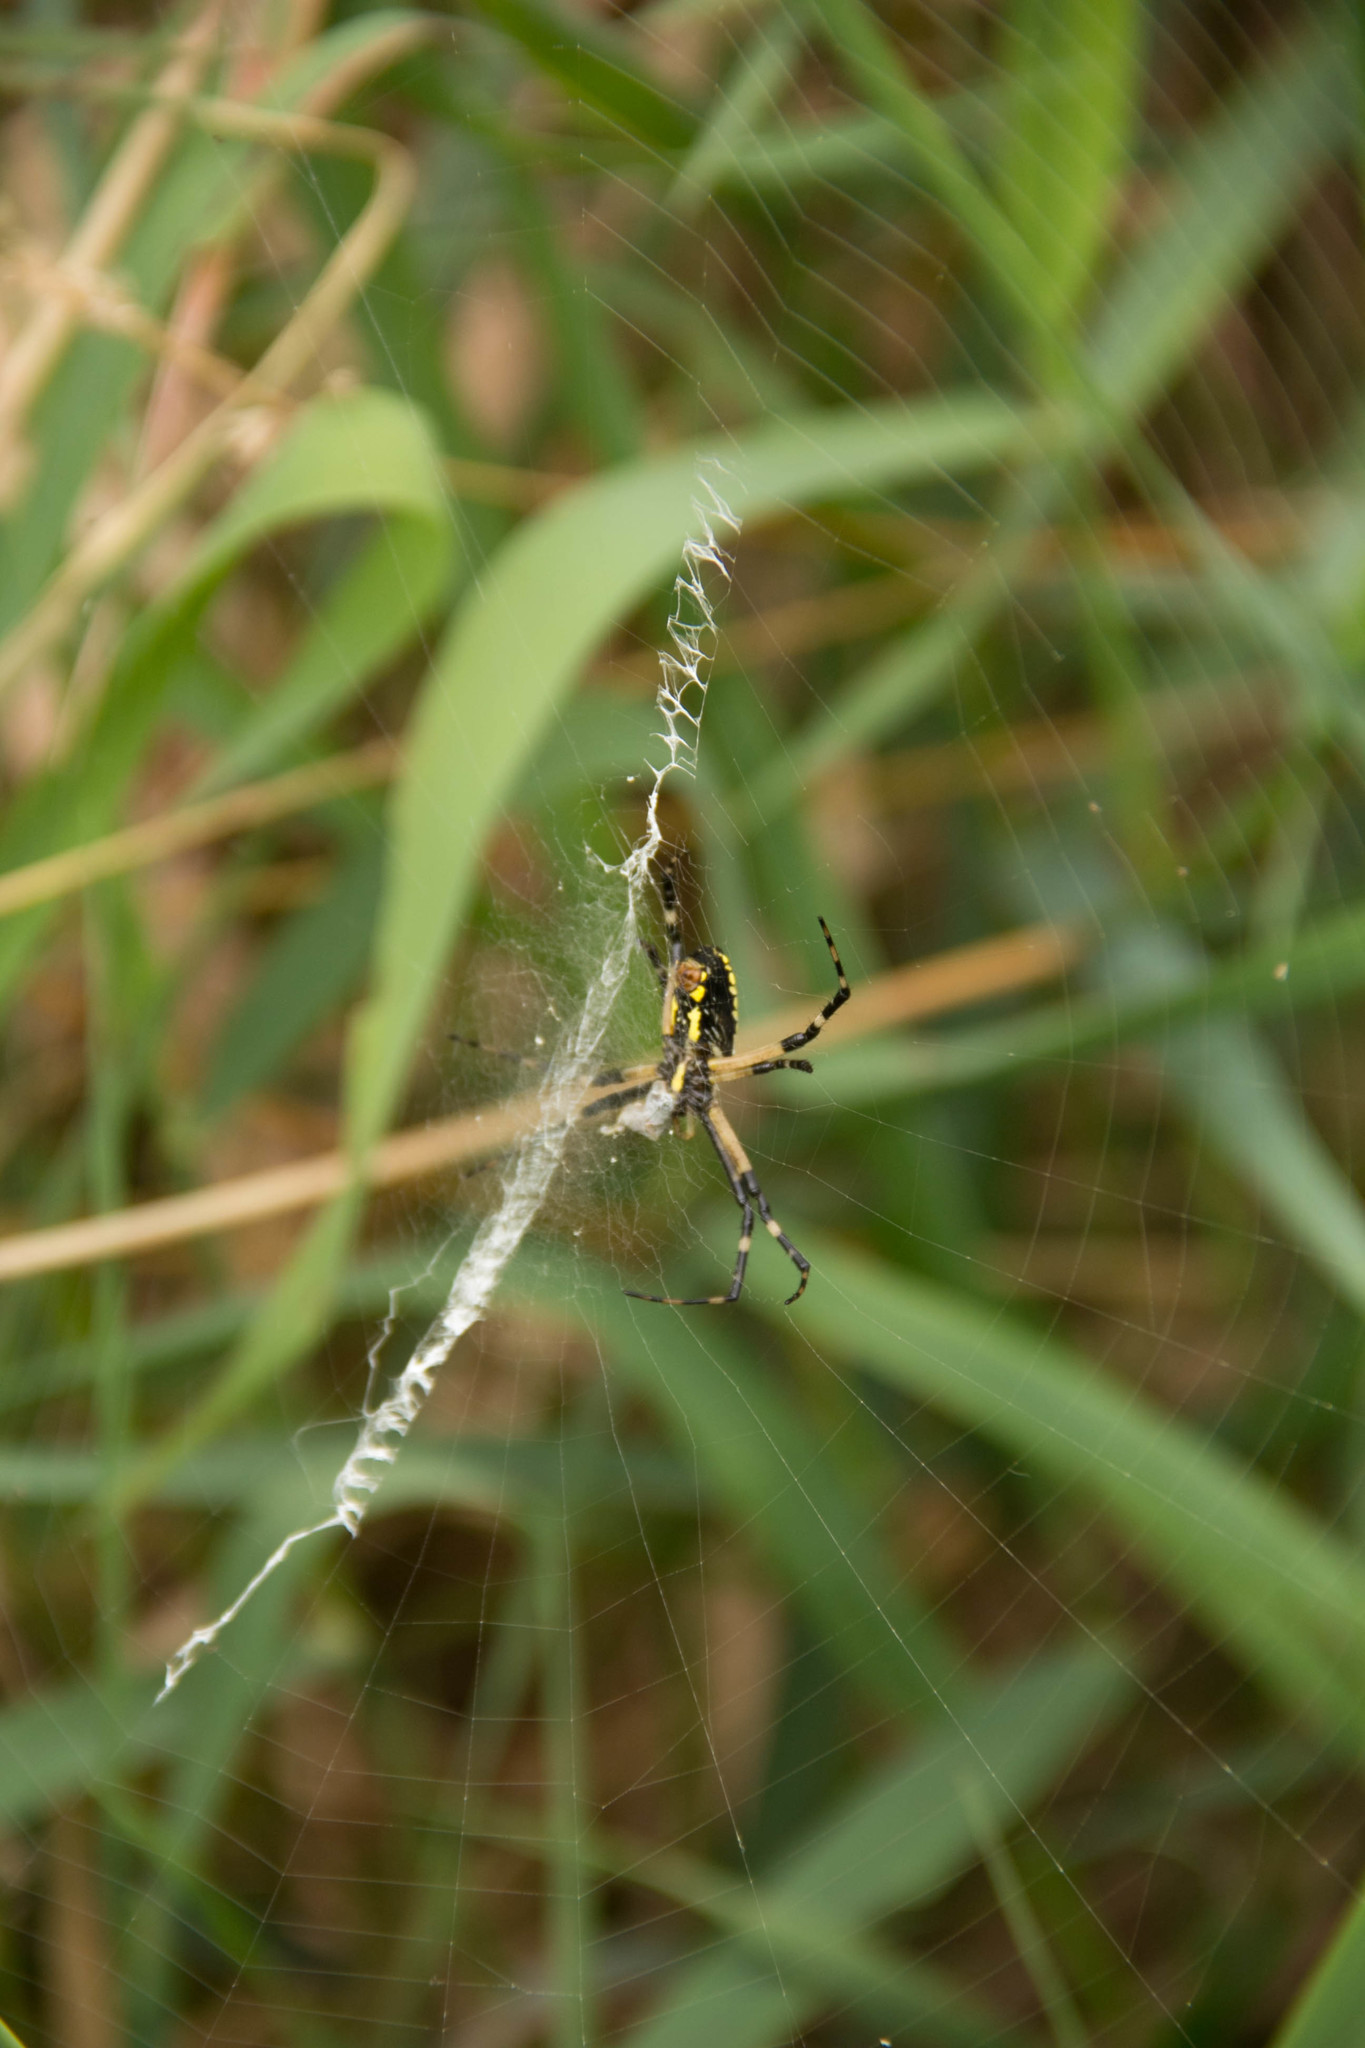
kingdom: Animalia
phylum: Arthropoda
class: Arachnida
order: Araneae
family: Araneidae
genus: Argiope
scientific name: Argiope aurantia
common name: Orb weavers
